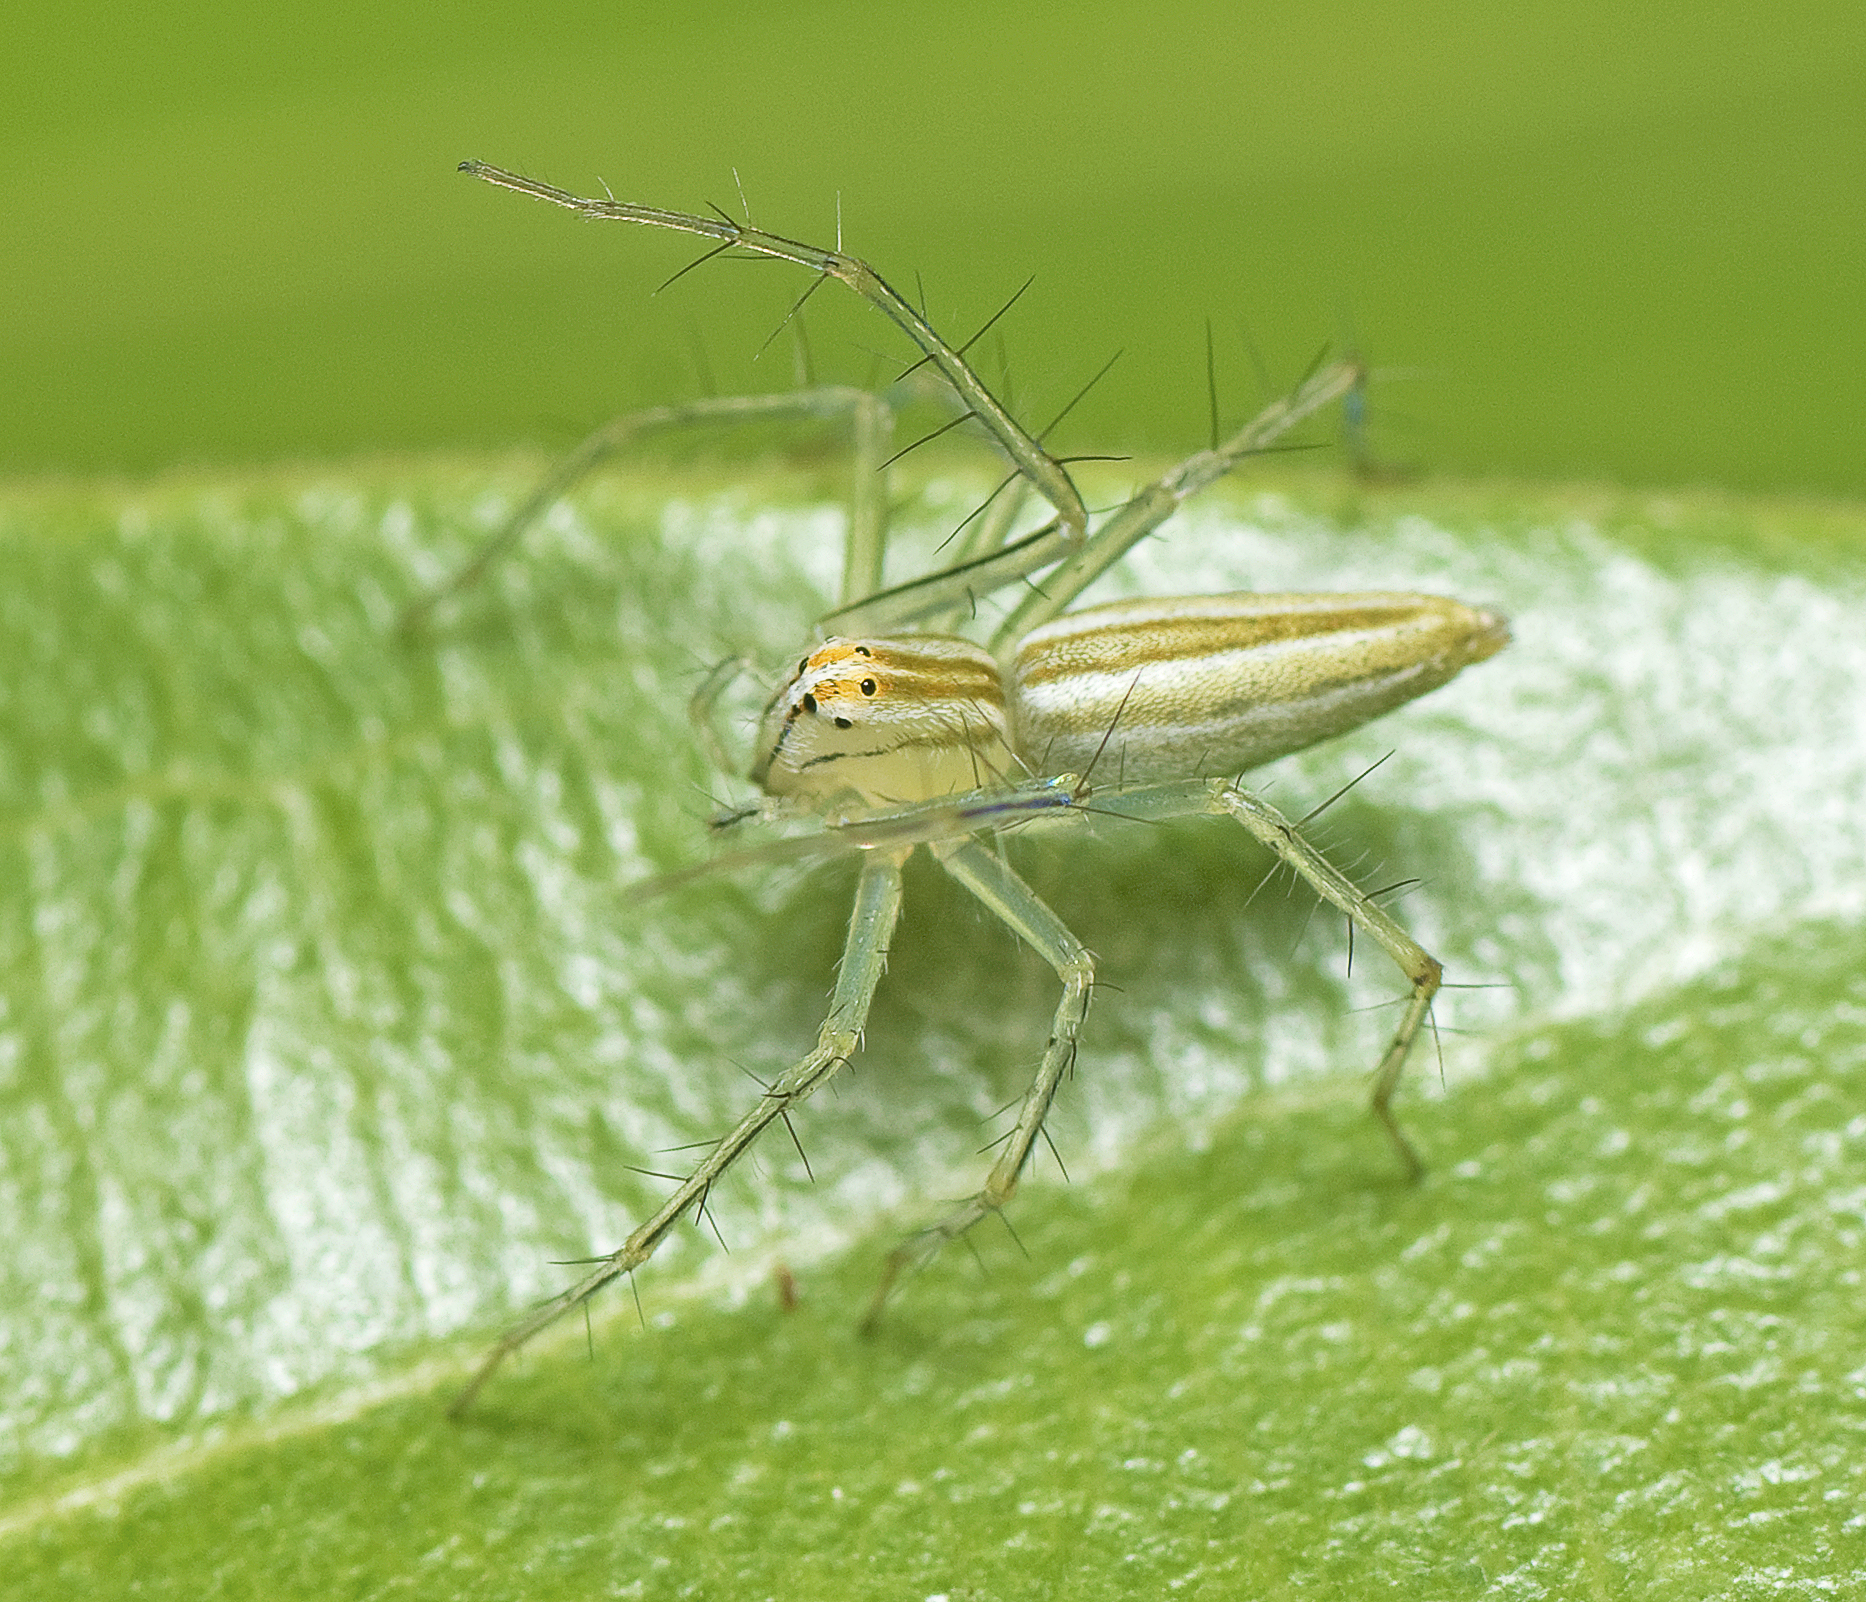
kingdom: Animalia
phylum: Arthropoda
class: Arachnida
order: Araneae
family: Oxyopidae
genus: Oxyopes
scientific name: Oxyopes macilentus
